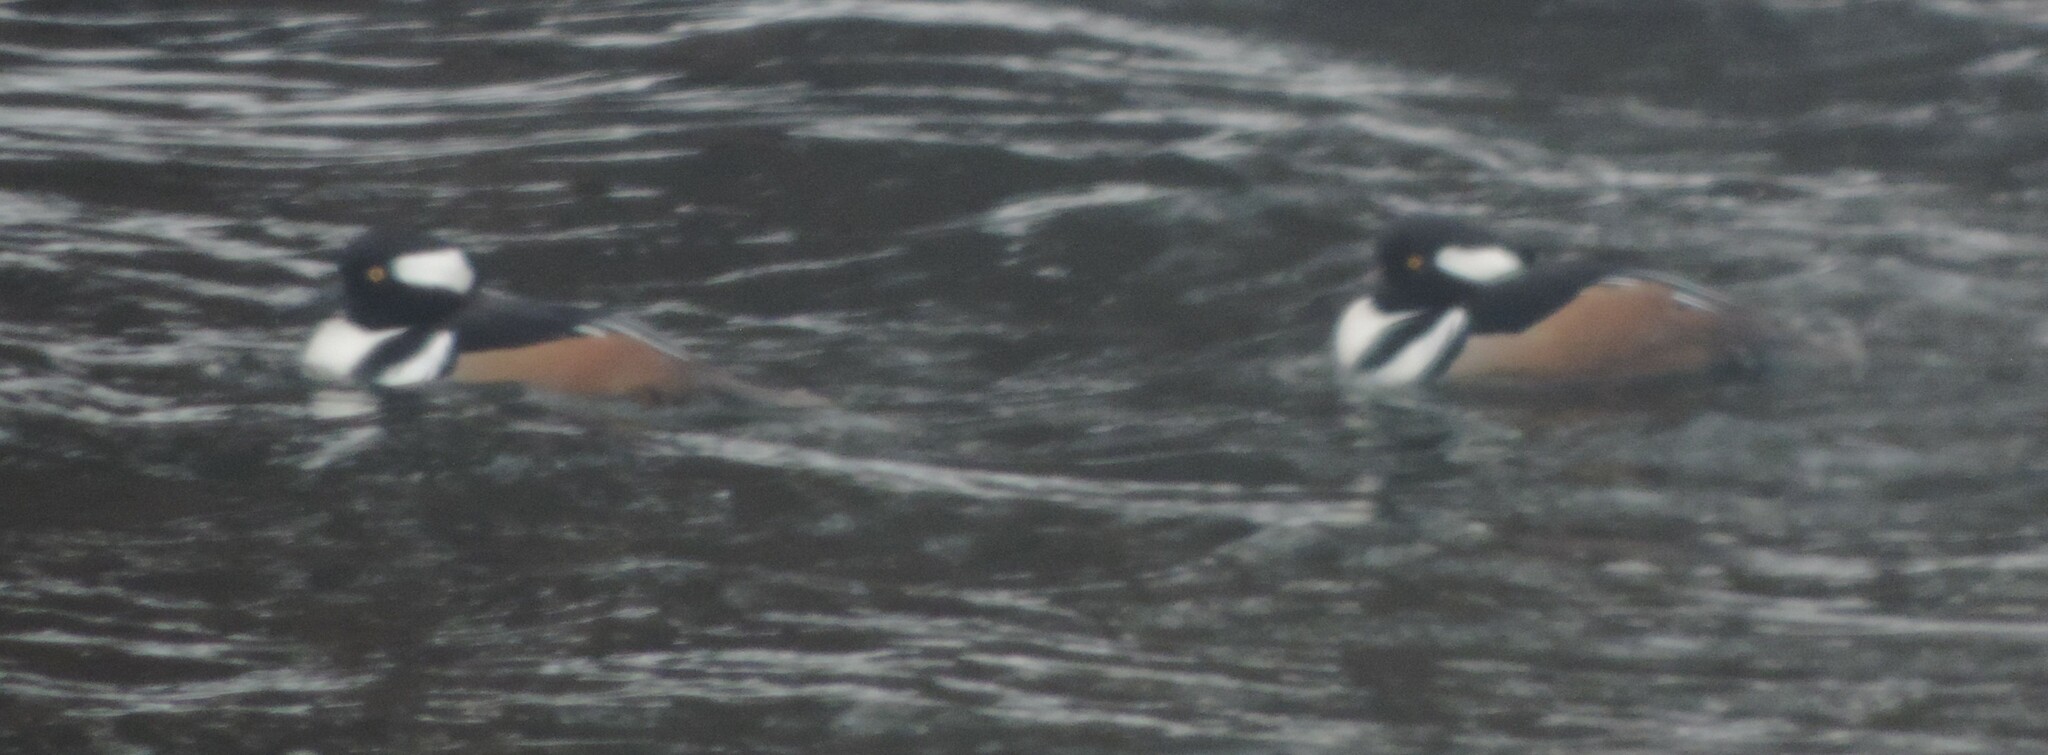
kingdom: Animalia
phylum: Chordata
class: Aves
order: Anseriformes
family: Anatidae
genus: Lophodytes
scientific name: Lophodytes cucullatus
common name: Hooded merganser
